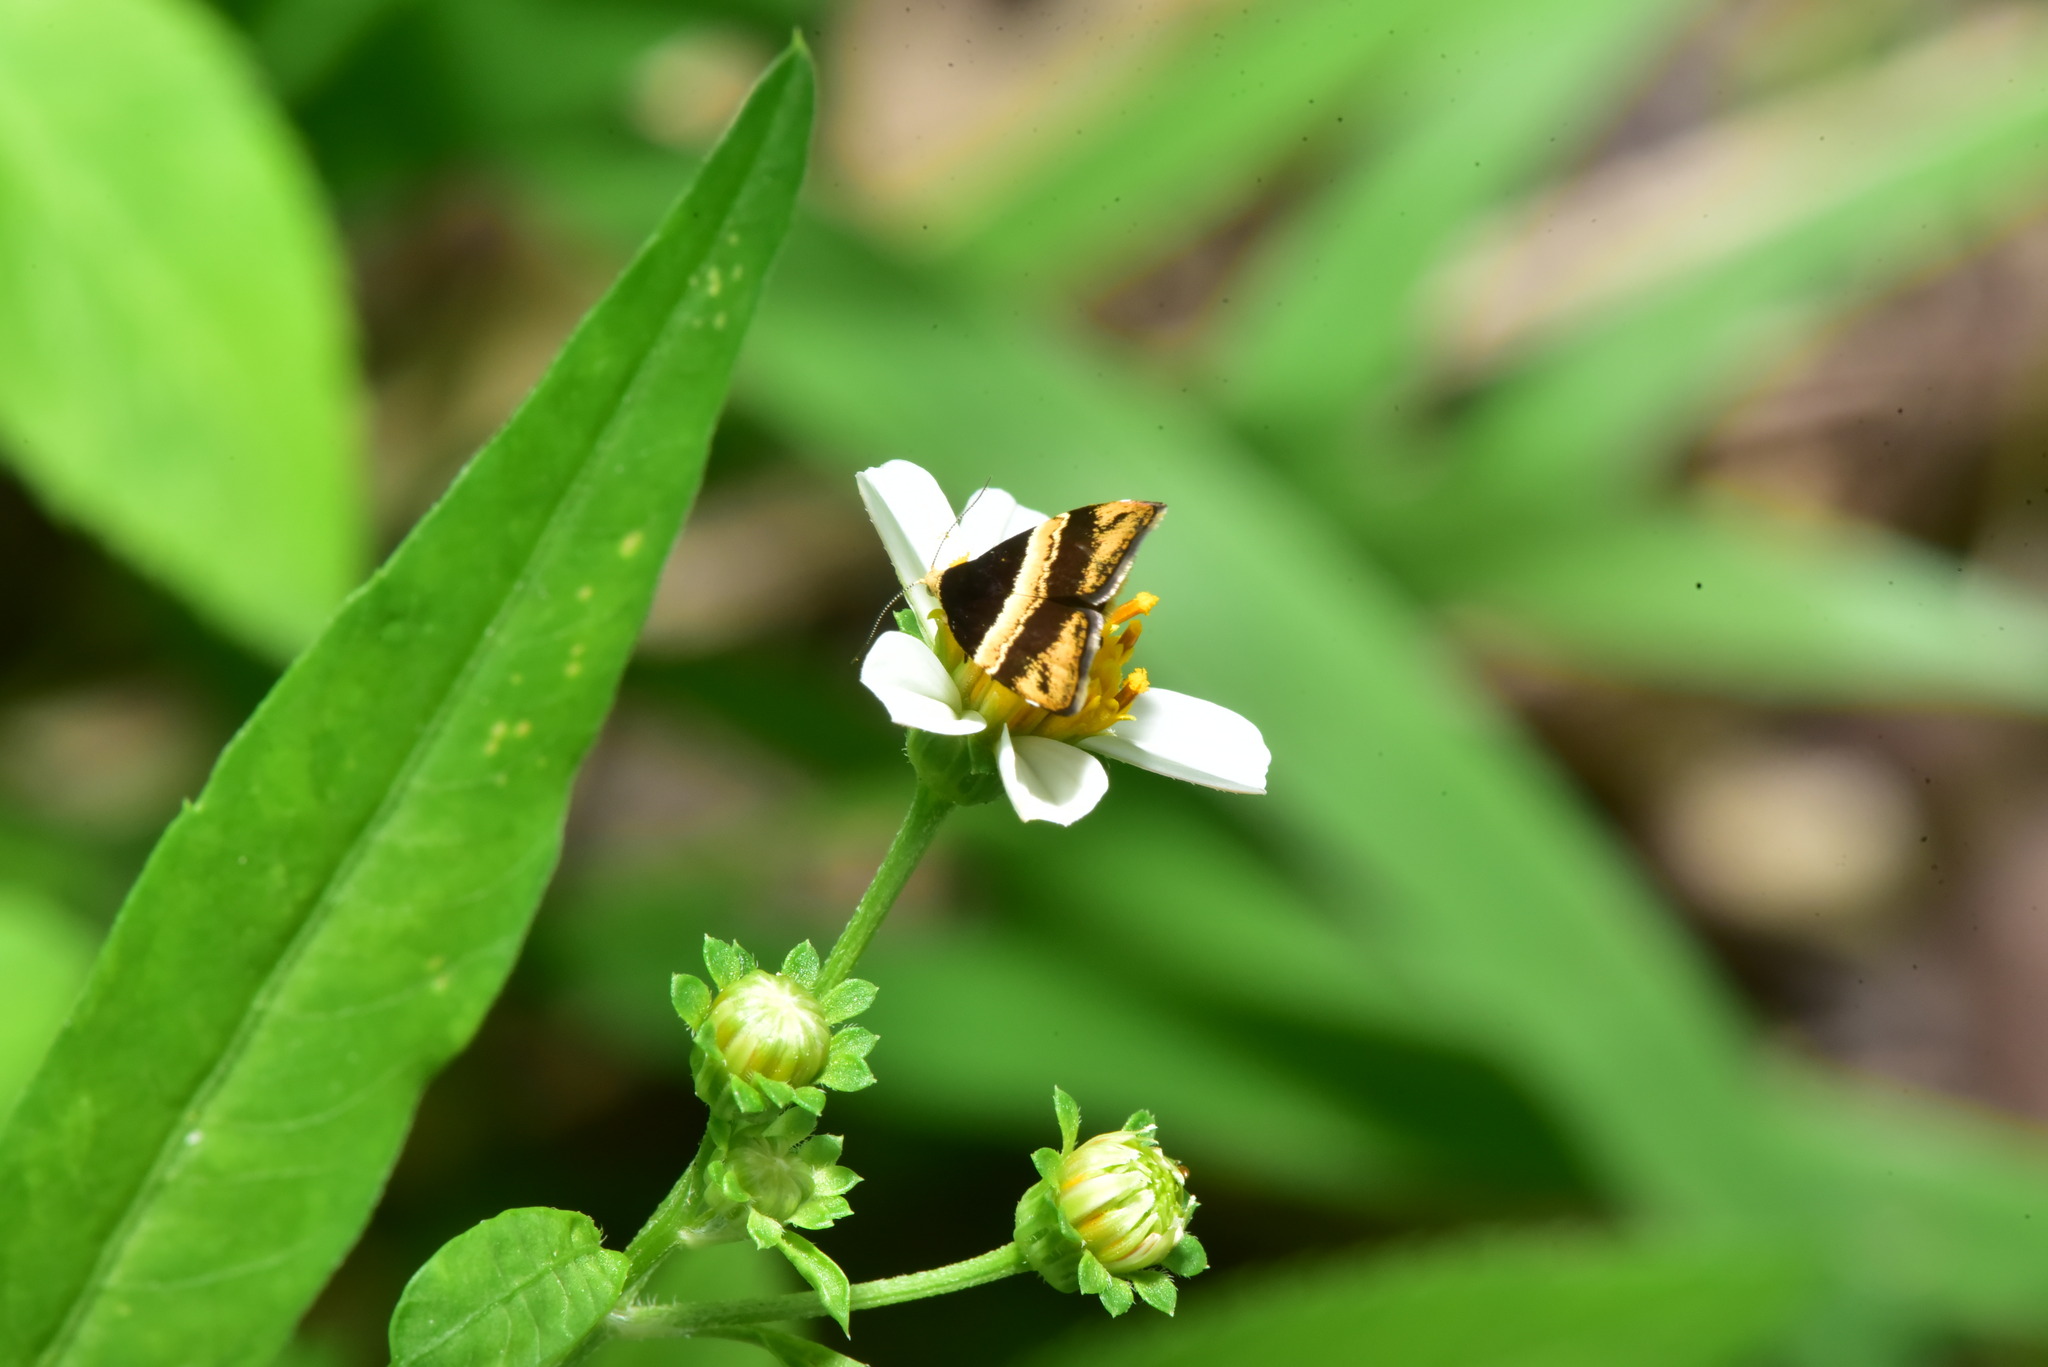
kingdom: Animalia
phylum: Arthropoda
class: Insecta
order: Lepidoptera
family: Choreutidae
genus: Choreutis
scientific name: Choreutis basalis
